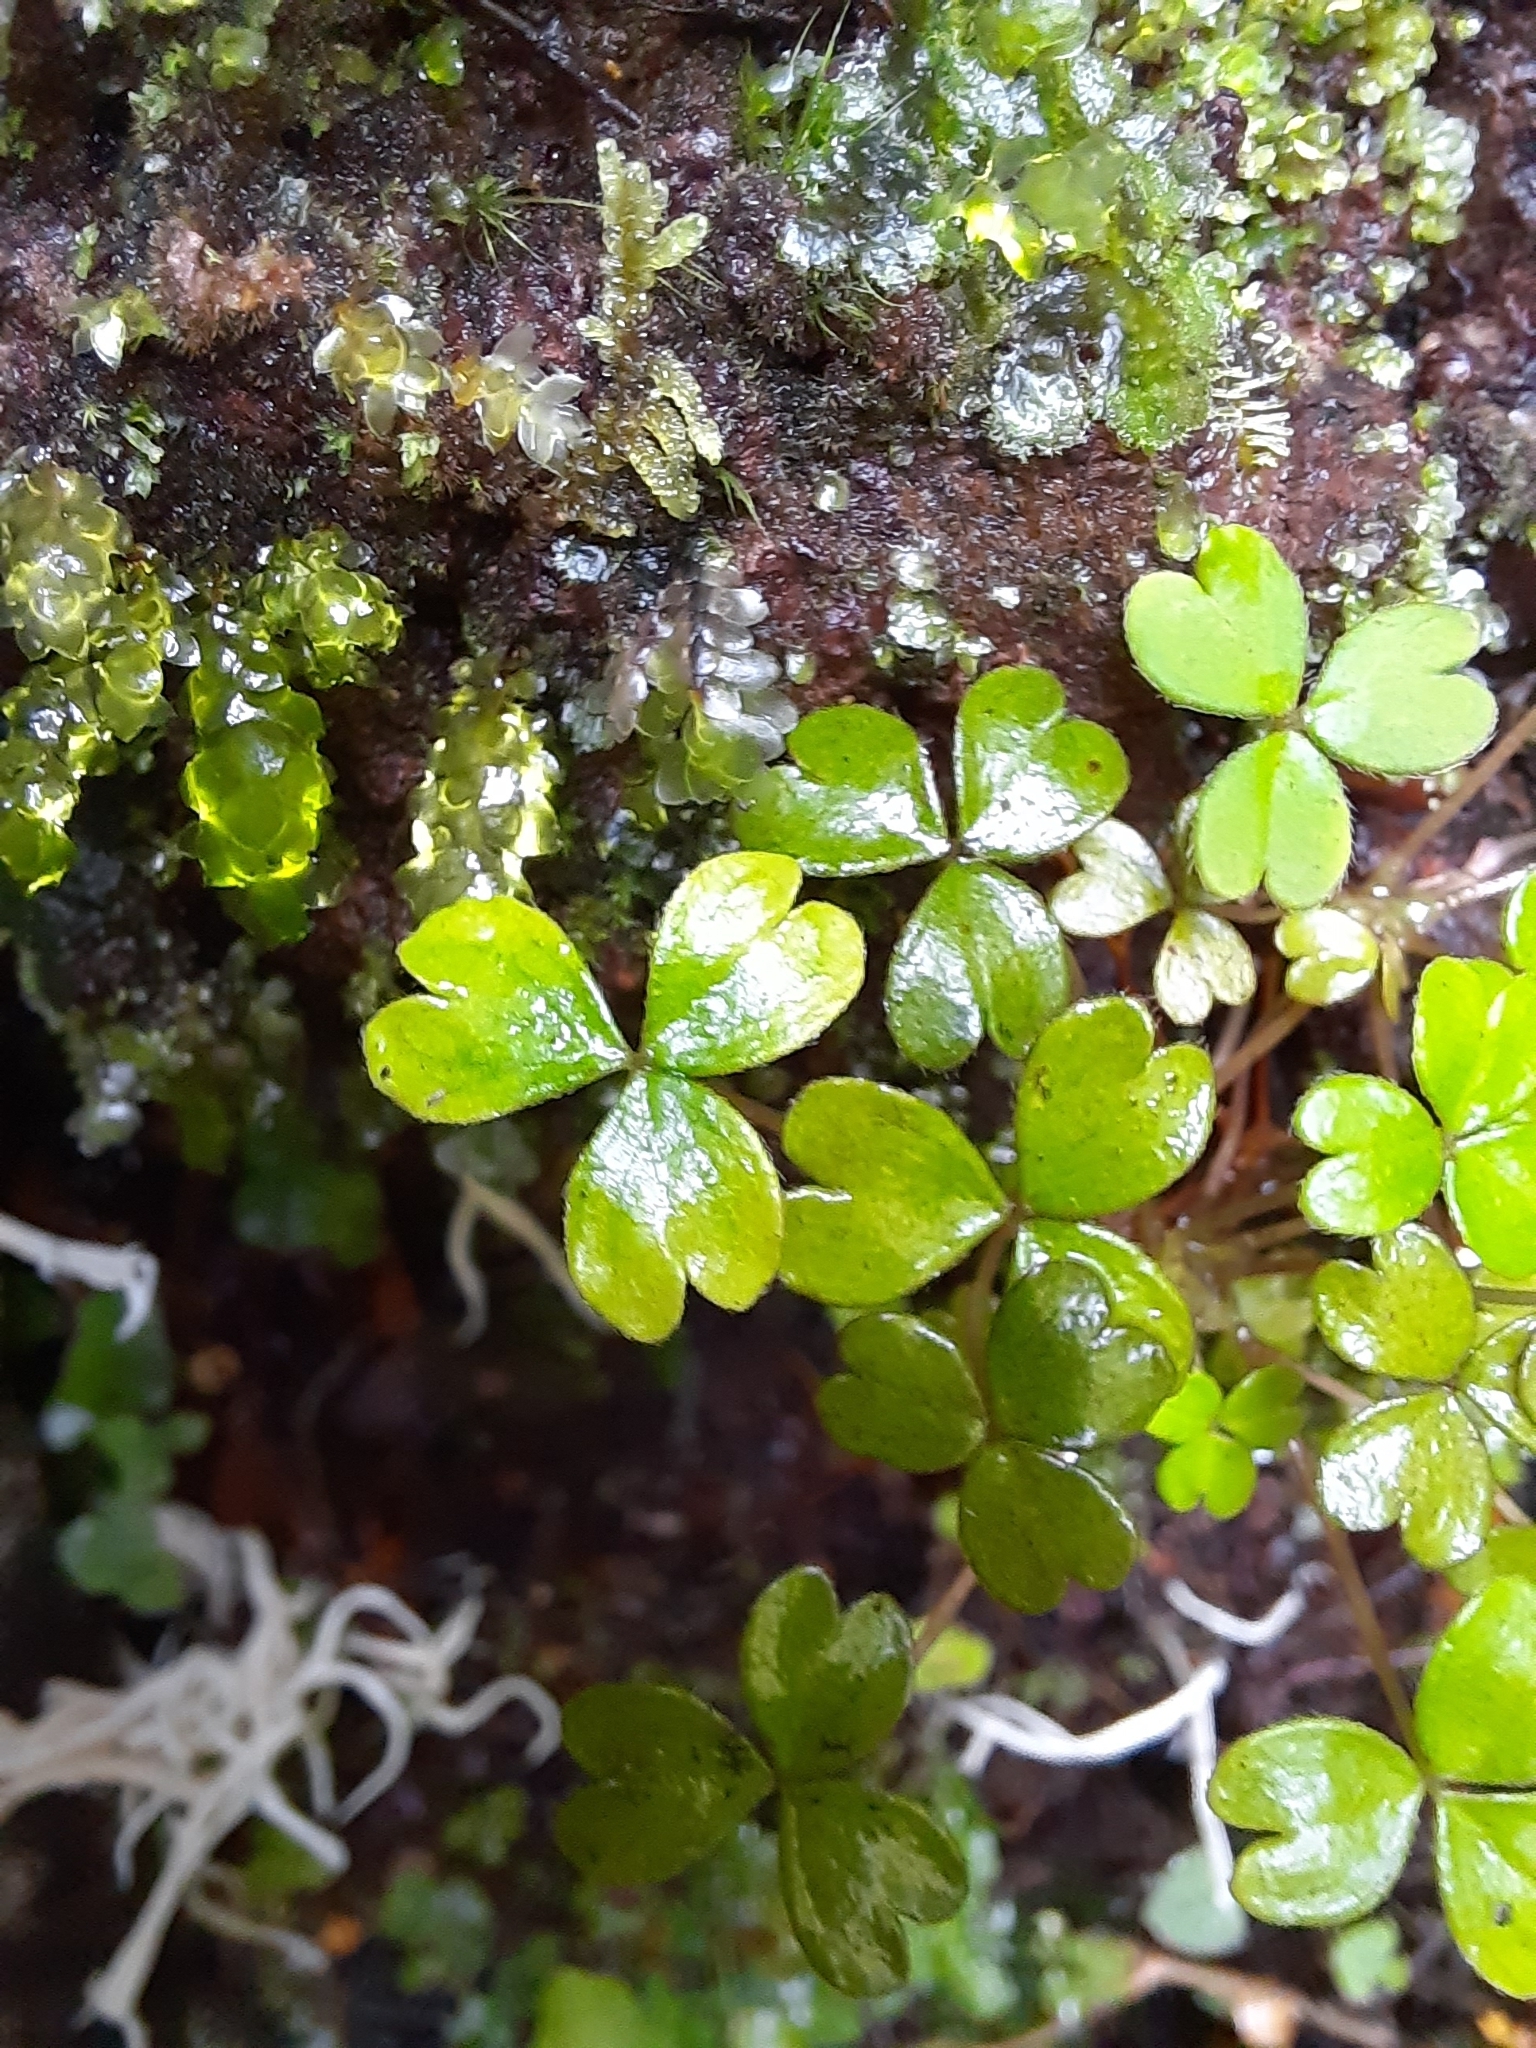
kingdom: Plantae
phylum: Tracheophyta
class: Magnoliopsida
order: Oxalidales
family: Oxalidaceae
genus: Oxalis
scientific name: Oxalis magellanica
